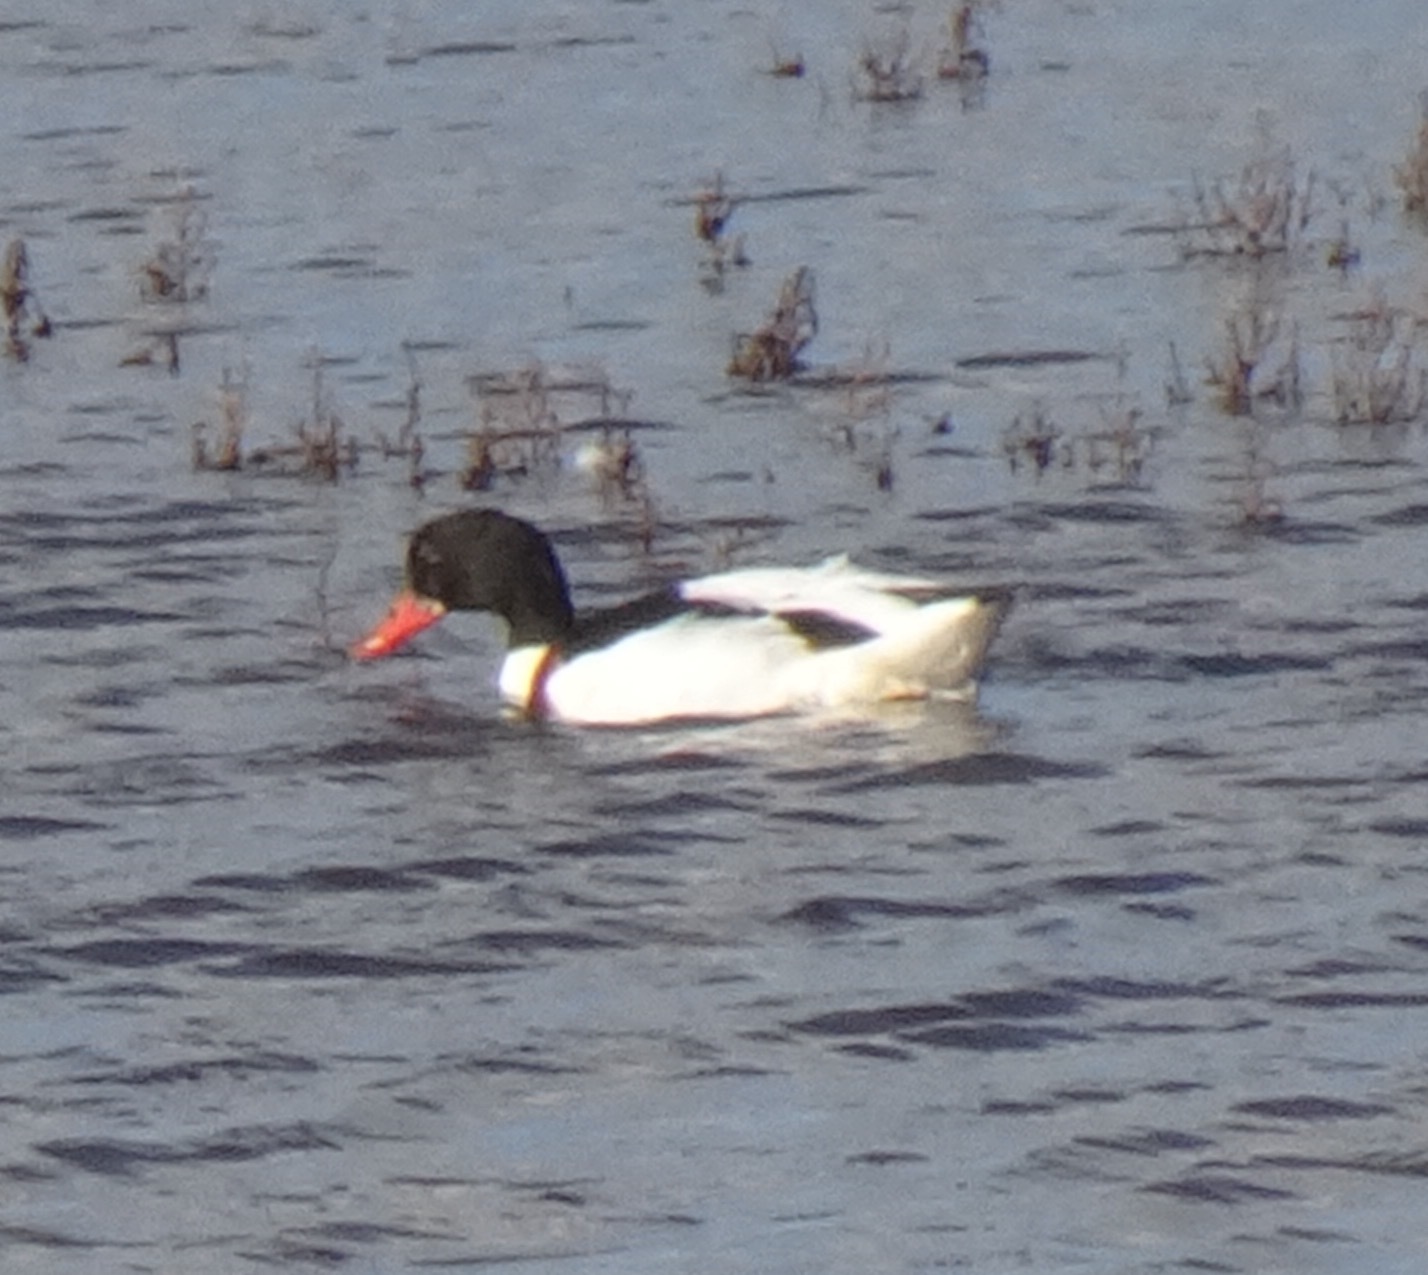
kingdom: Animalia
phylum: Chordata
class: Aves
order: Anseriformes
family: Anatidae
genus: Tadorna
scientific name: Tadorna tadorna
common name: Common shelduck
